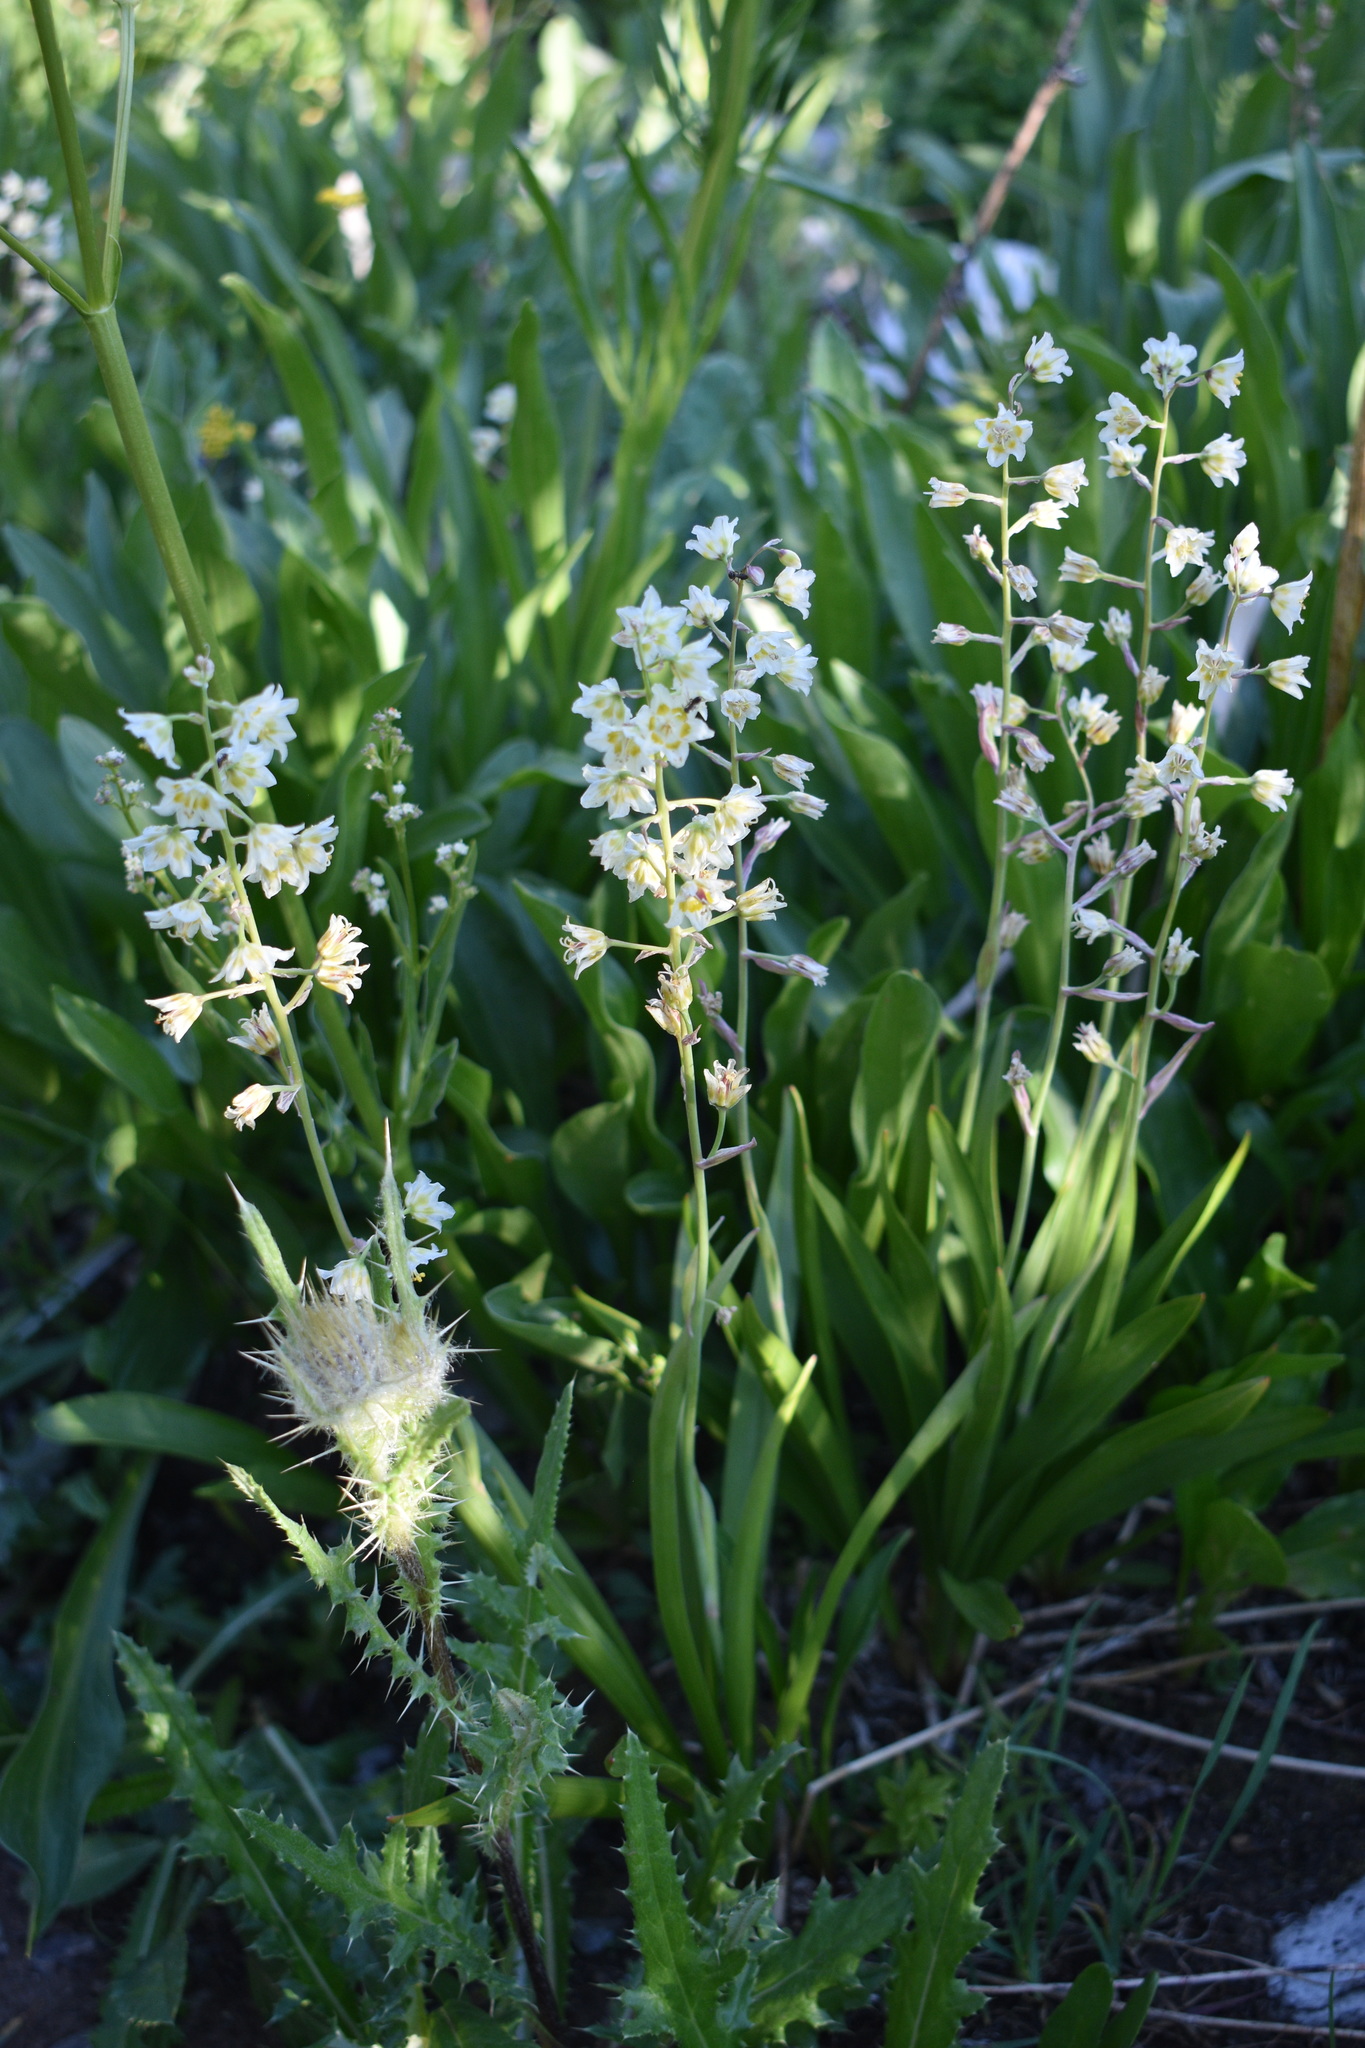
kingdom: Plantae
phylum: Tracheophyta
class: Liliopsida
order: Liliales
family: Melanthiaceae
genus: Anticlea
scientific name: Anticlea elegans
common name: Mountain death camas
